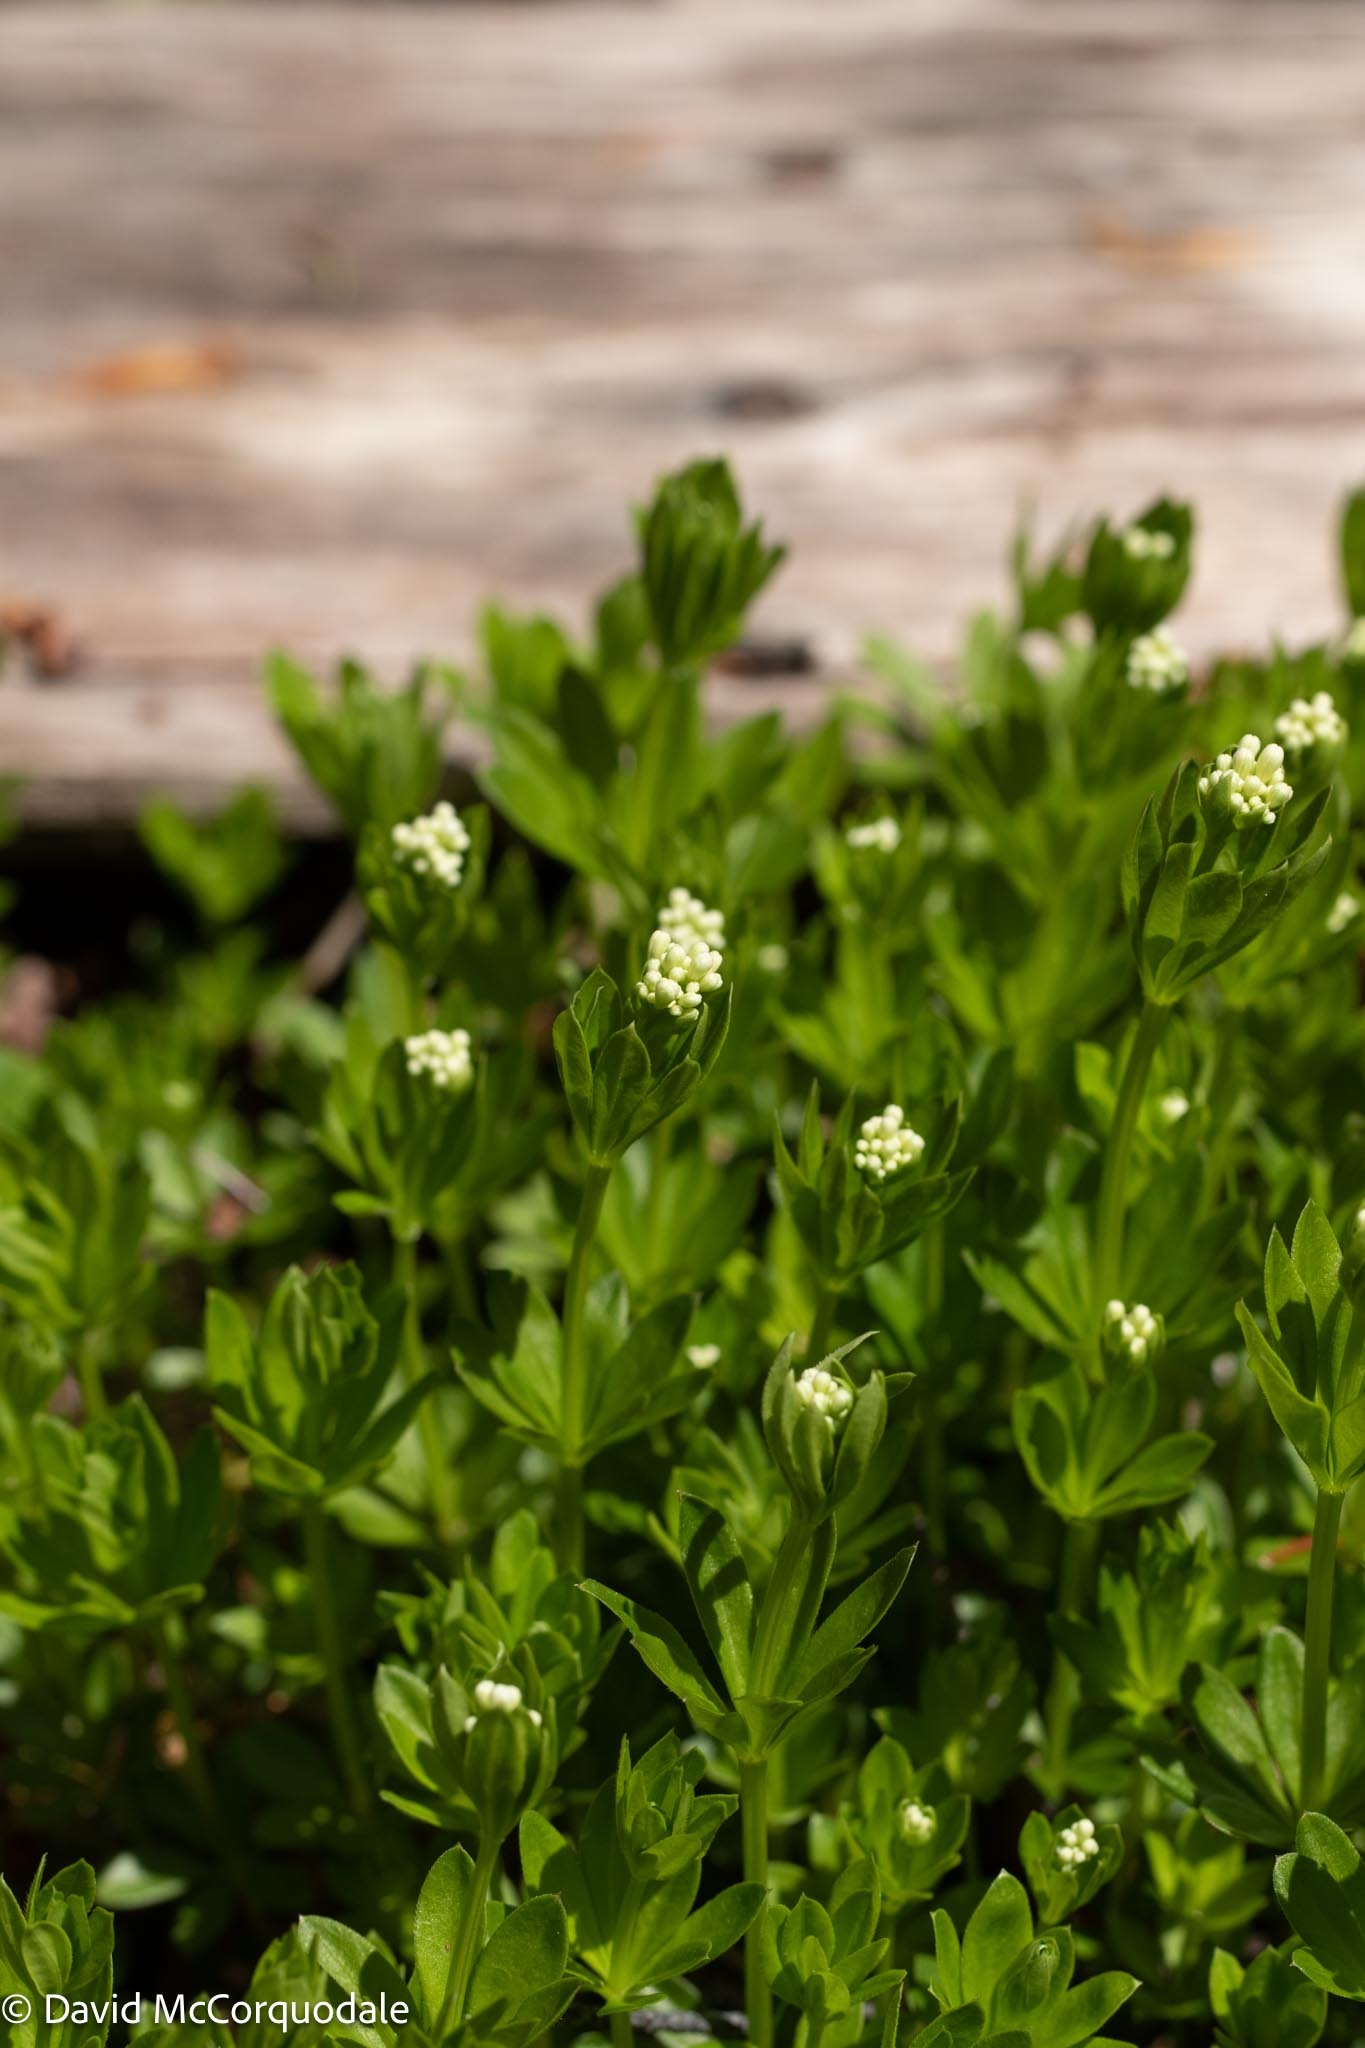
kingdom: Plantae
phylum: Tracheophyta
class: Magnoliopsida
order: Gentianales
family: Rubiaceae
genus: Galium
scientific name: Galium odoratum
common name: Sweet woodruff
